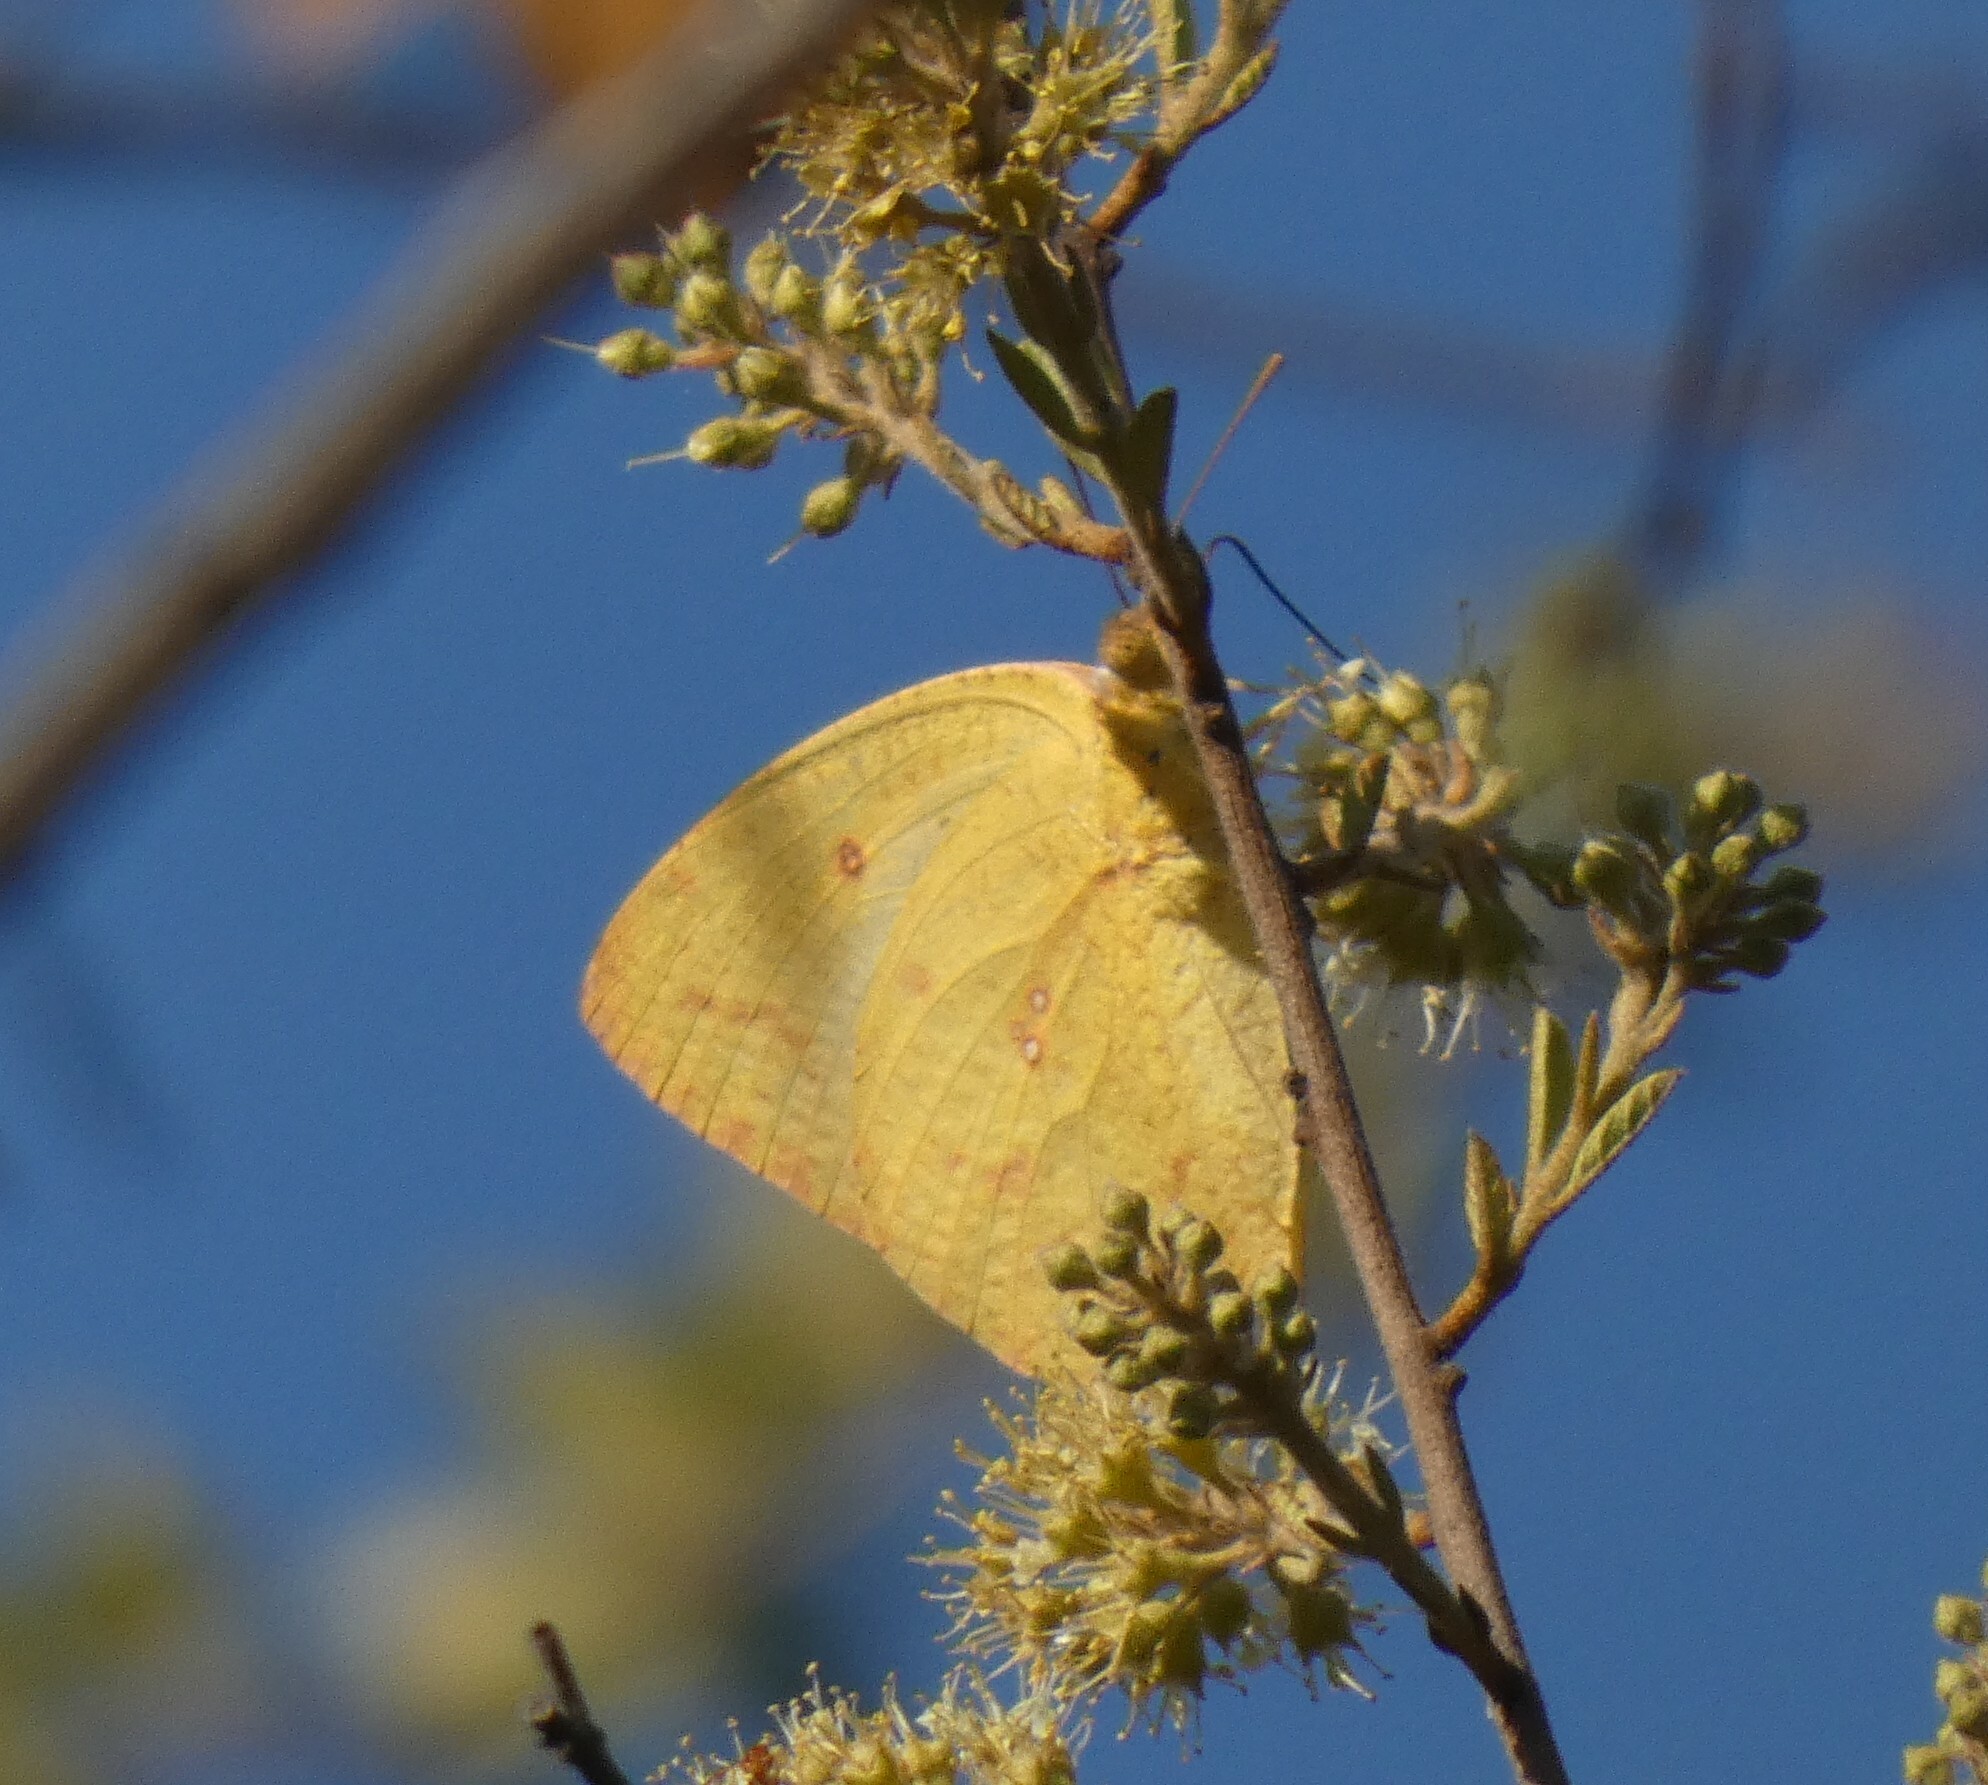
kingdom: Animalia
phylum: Arthropoda
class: Insecta
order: Lepidoptera
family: Pieridae
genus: Catopsilia
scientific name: Catopsilia florella
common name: African migrant
